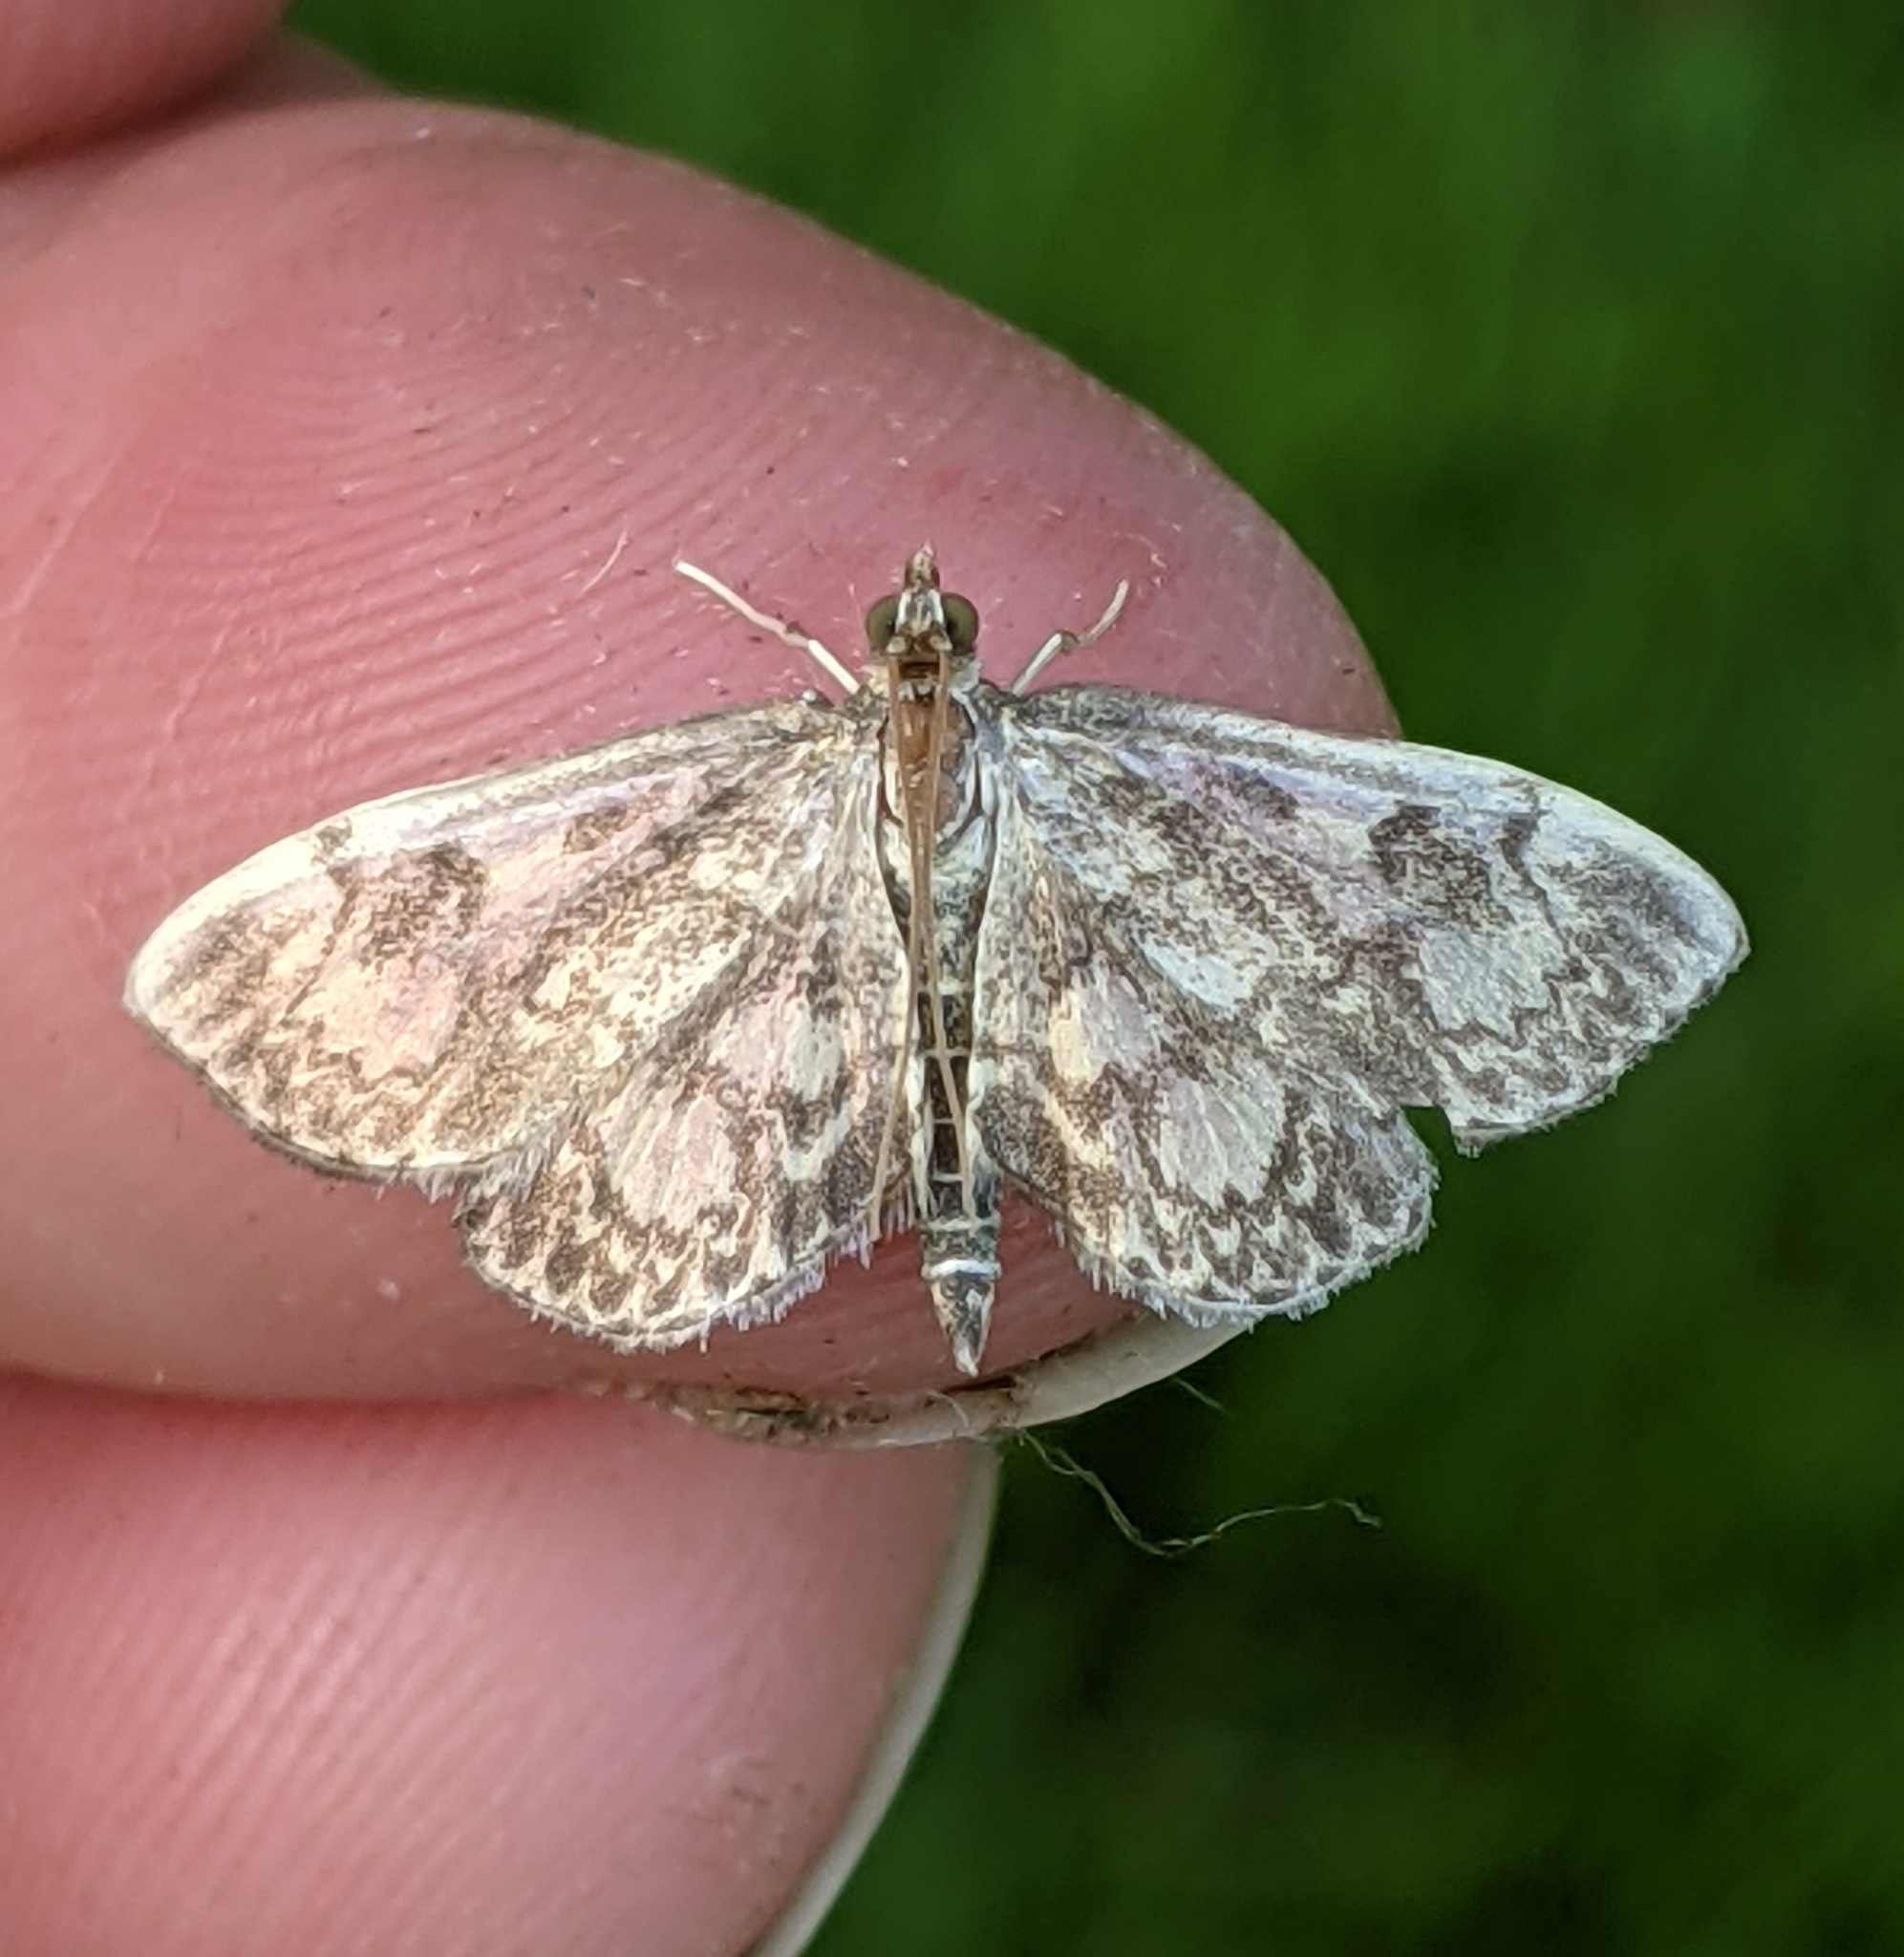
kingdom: Animalia
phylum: Arthropoda
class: Insecta
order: Lepidoptera
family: Crambidae
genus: Anania
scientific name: Anania tertialis
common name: Crowned phylctaenia moth
